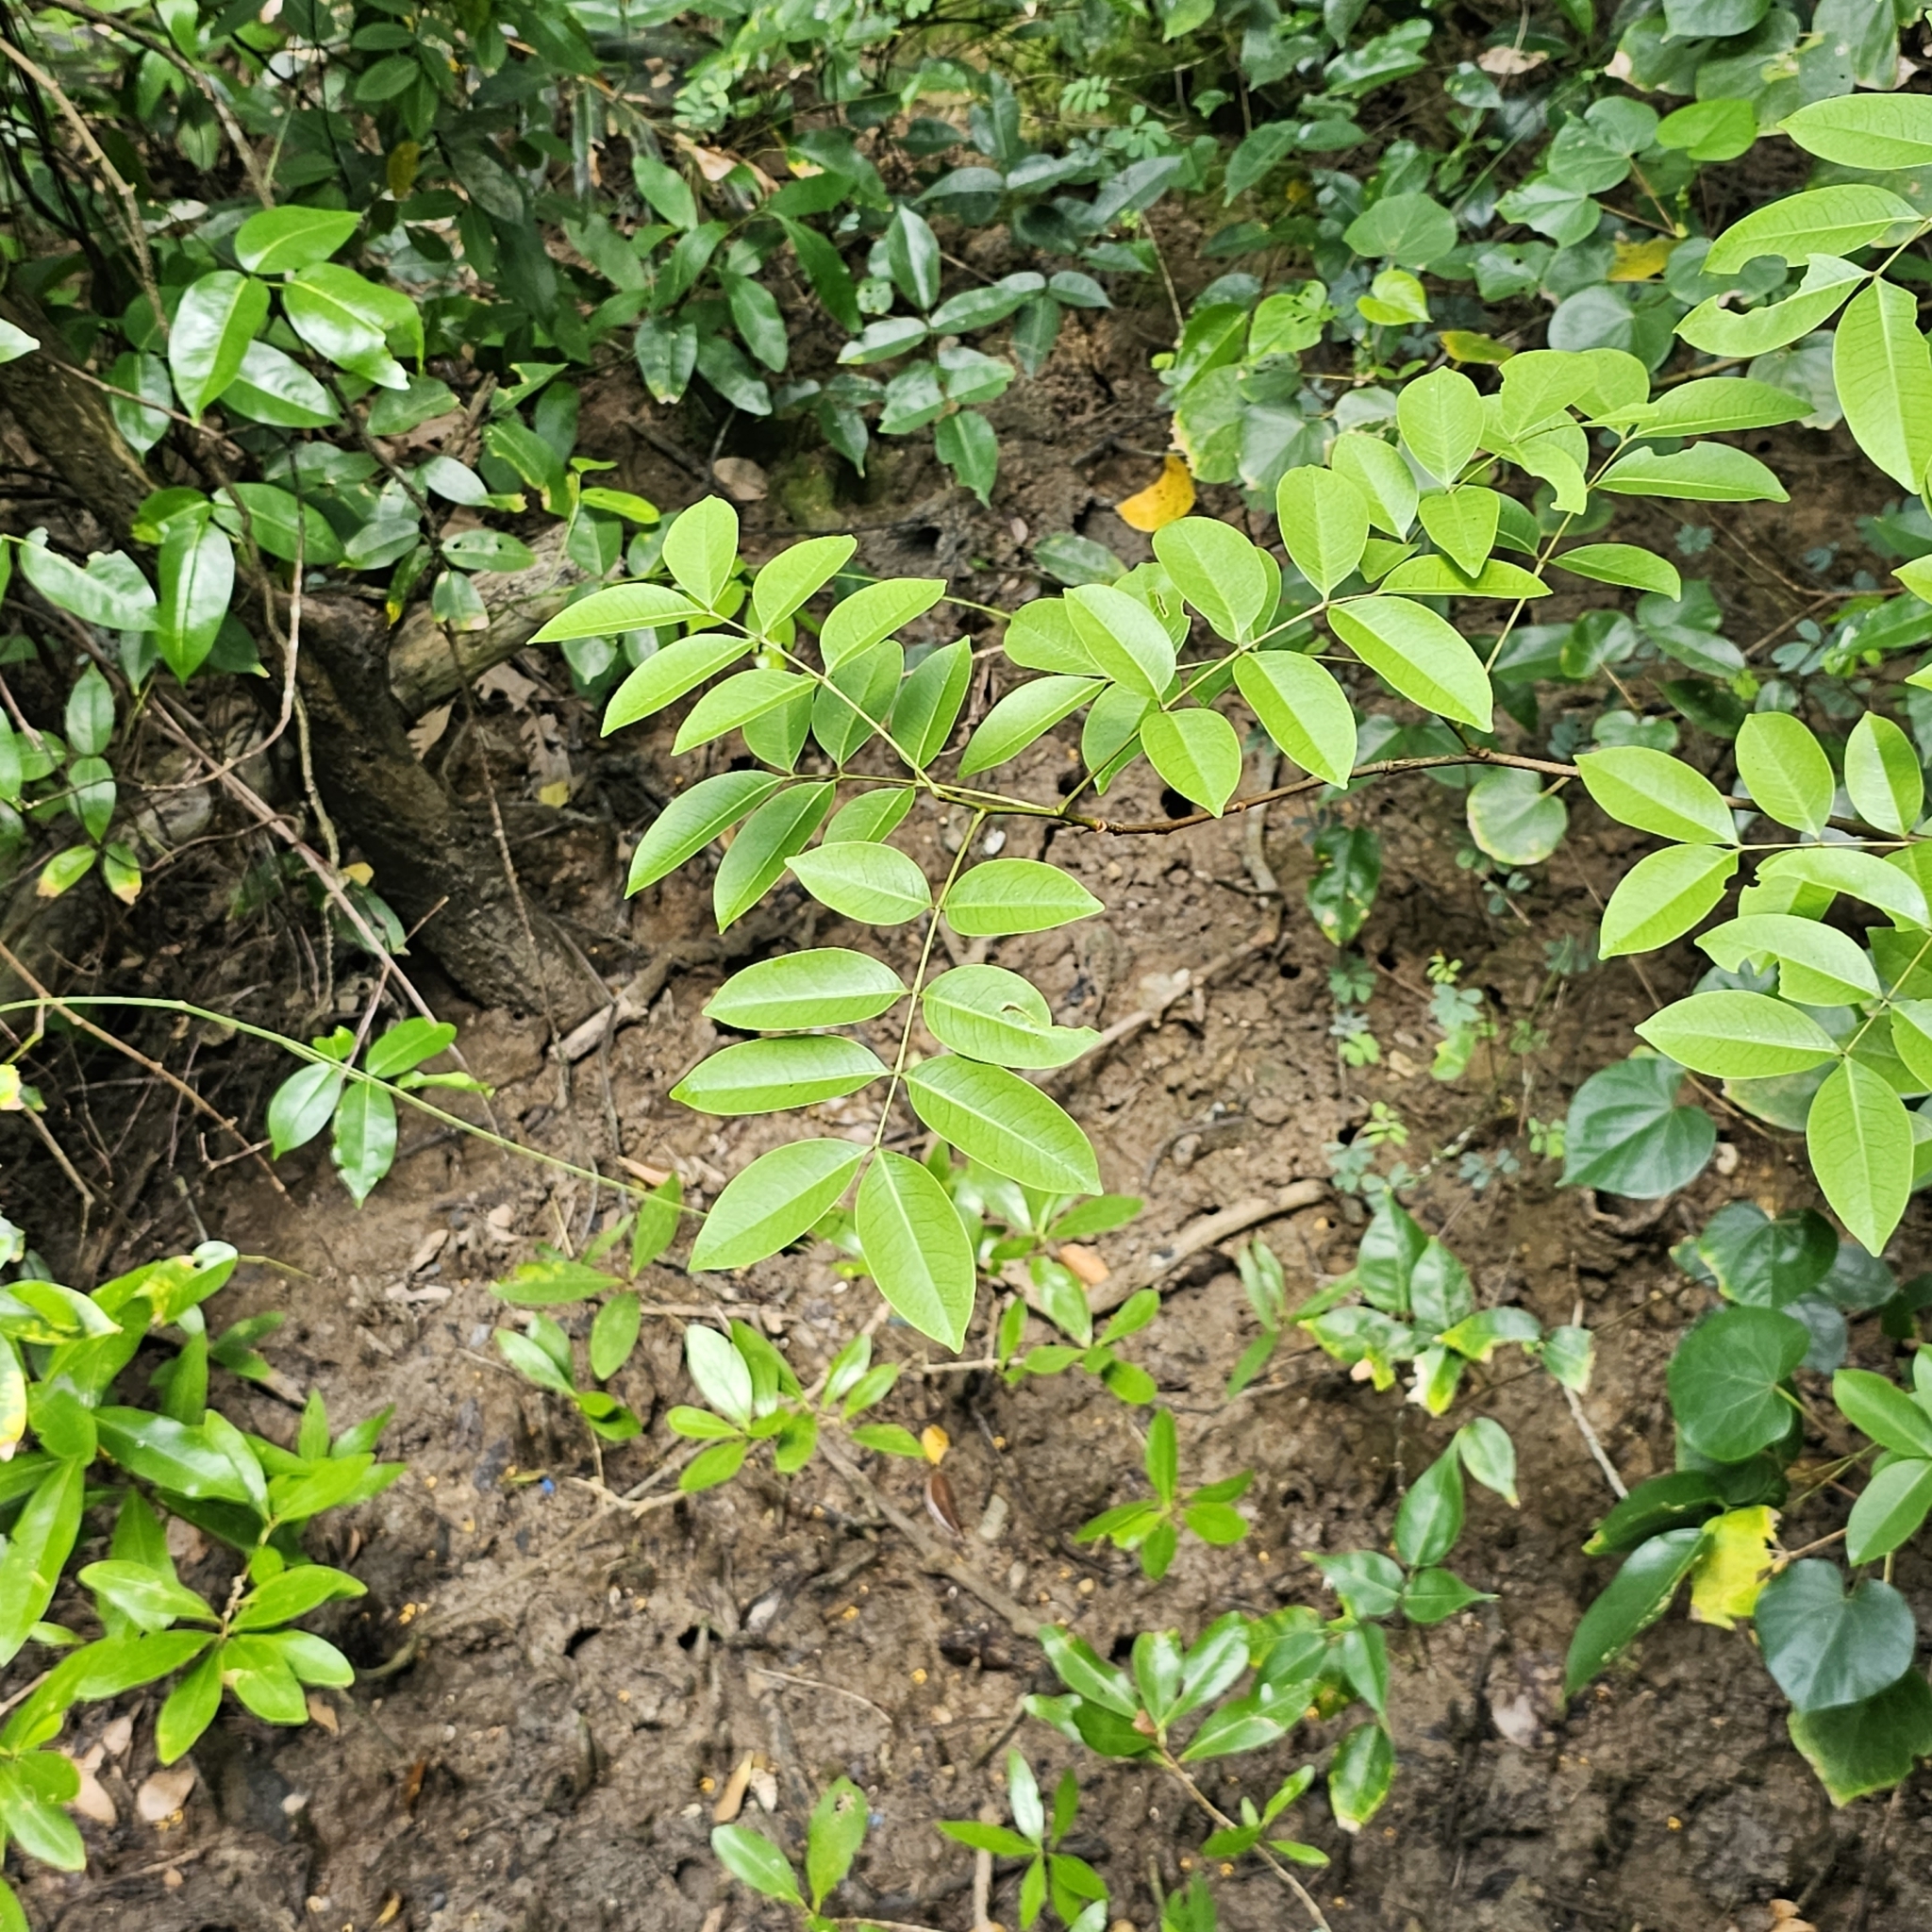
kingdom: Plantae
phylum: Tracheophyta
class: Magnoliopsida
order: Sapindales
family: Meliaceae
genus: Xylocarpus
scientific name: Xylocarpus moluccensis
